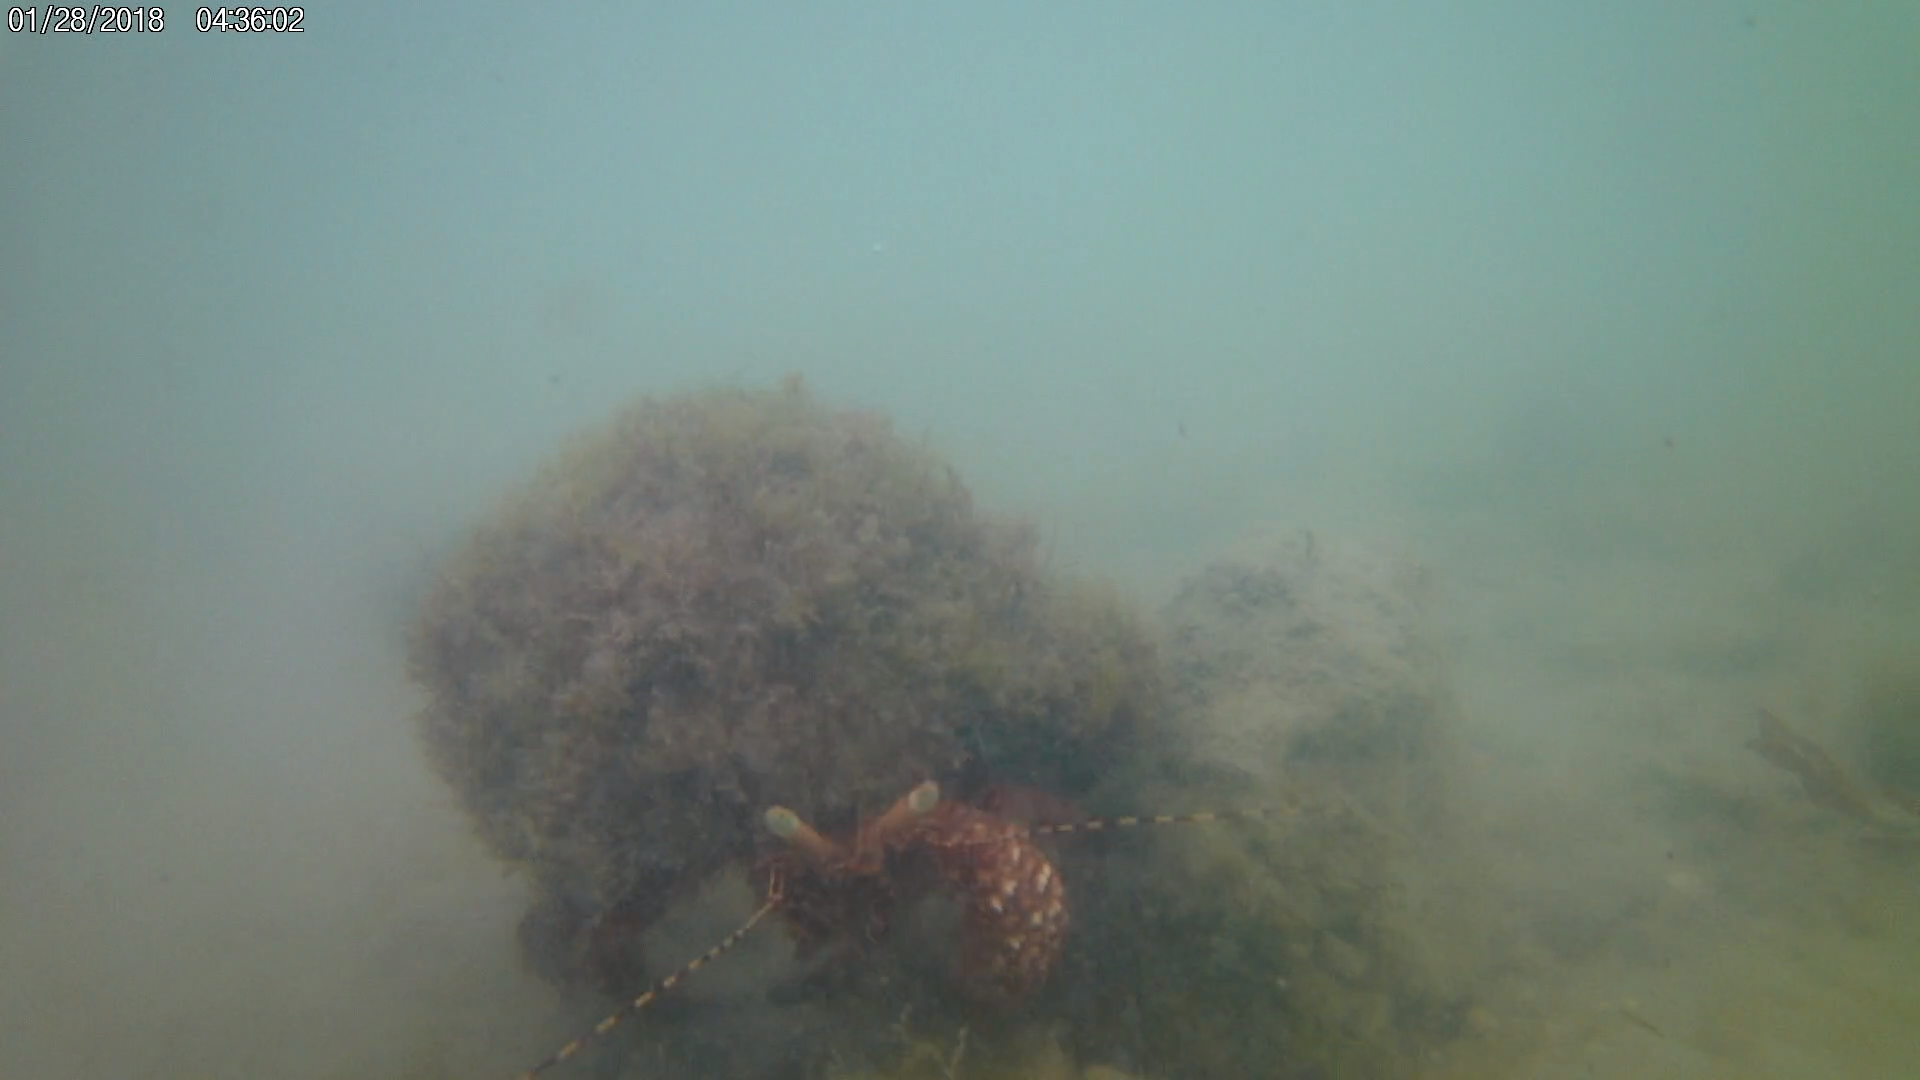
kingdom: Animalia
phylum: Arthropoda
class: Malacostraca
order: Decapoda
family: Diogenidae
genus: Petrochirus
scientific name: Petrochirus diogenes
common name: Giant hermit crab
